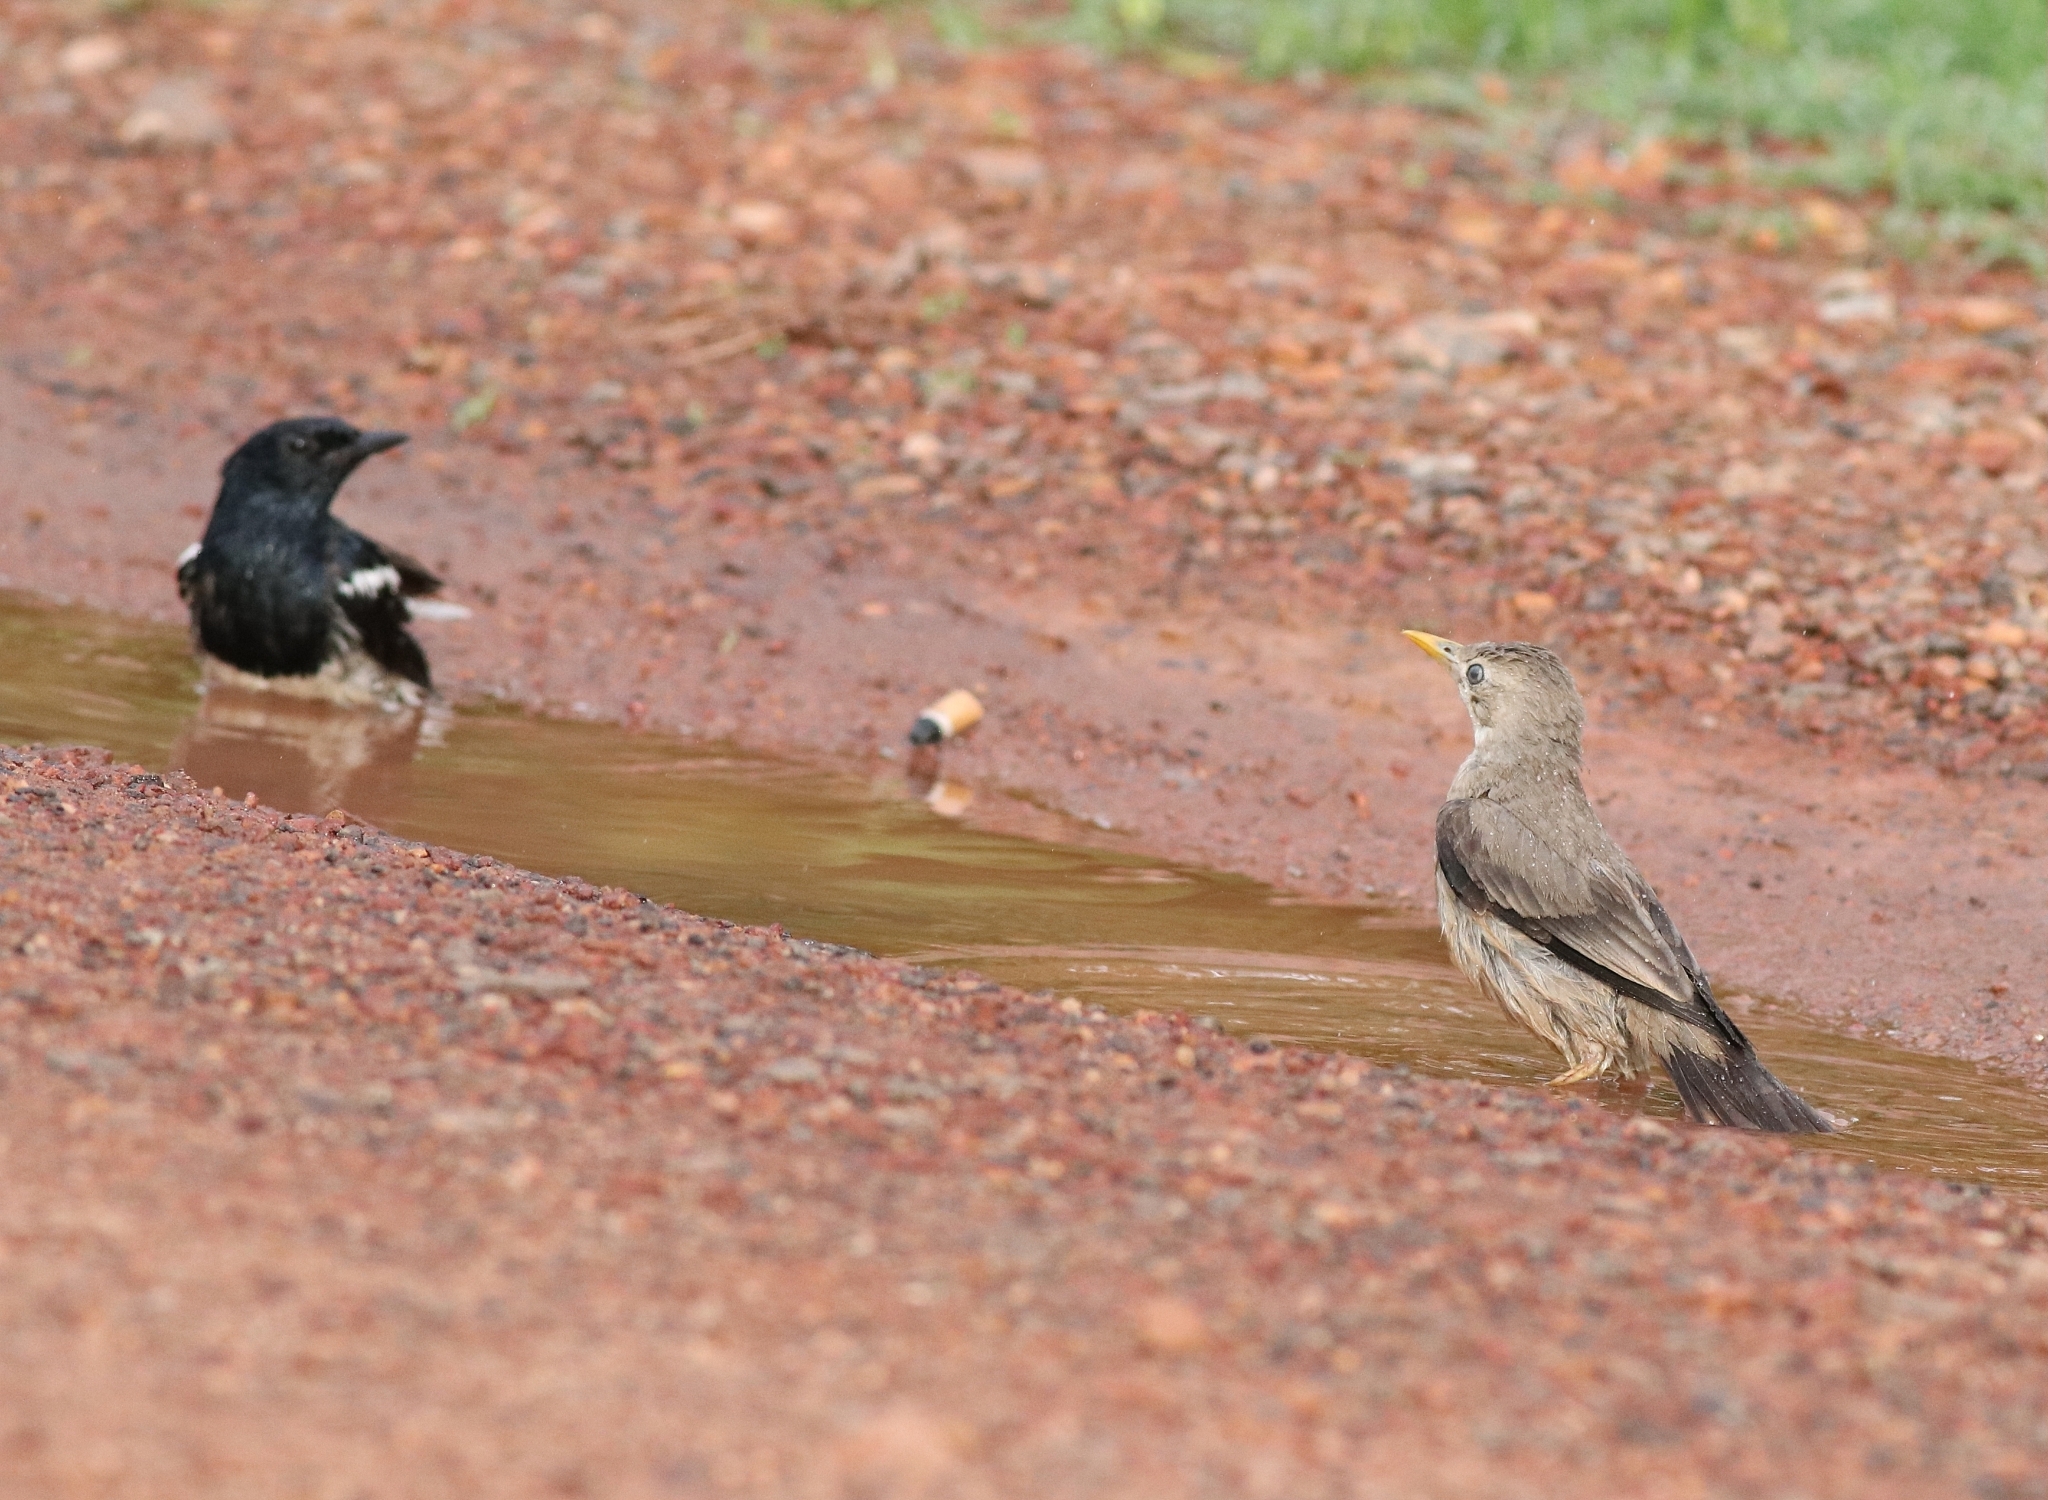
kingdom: Animalia
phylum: Chordata
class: Aves
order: Passeriformes
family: Sturnidae
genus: Sturnia
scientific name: Sturnia blythii
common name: Malabar starling
